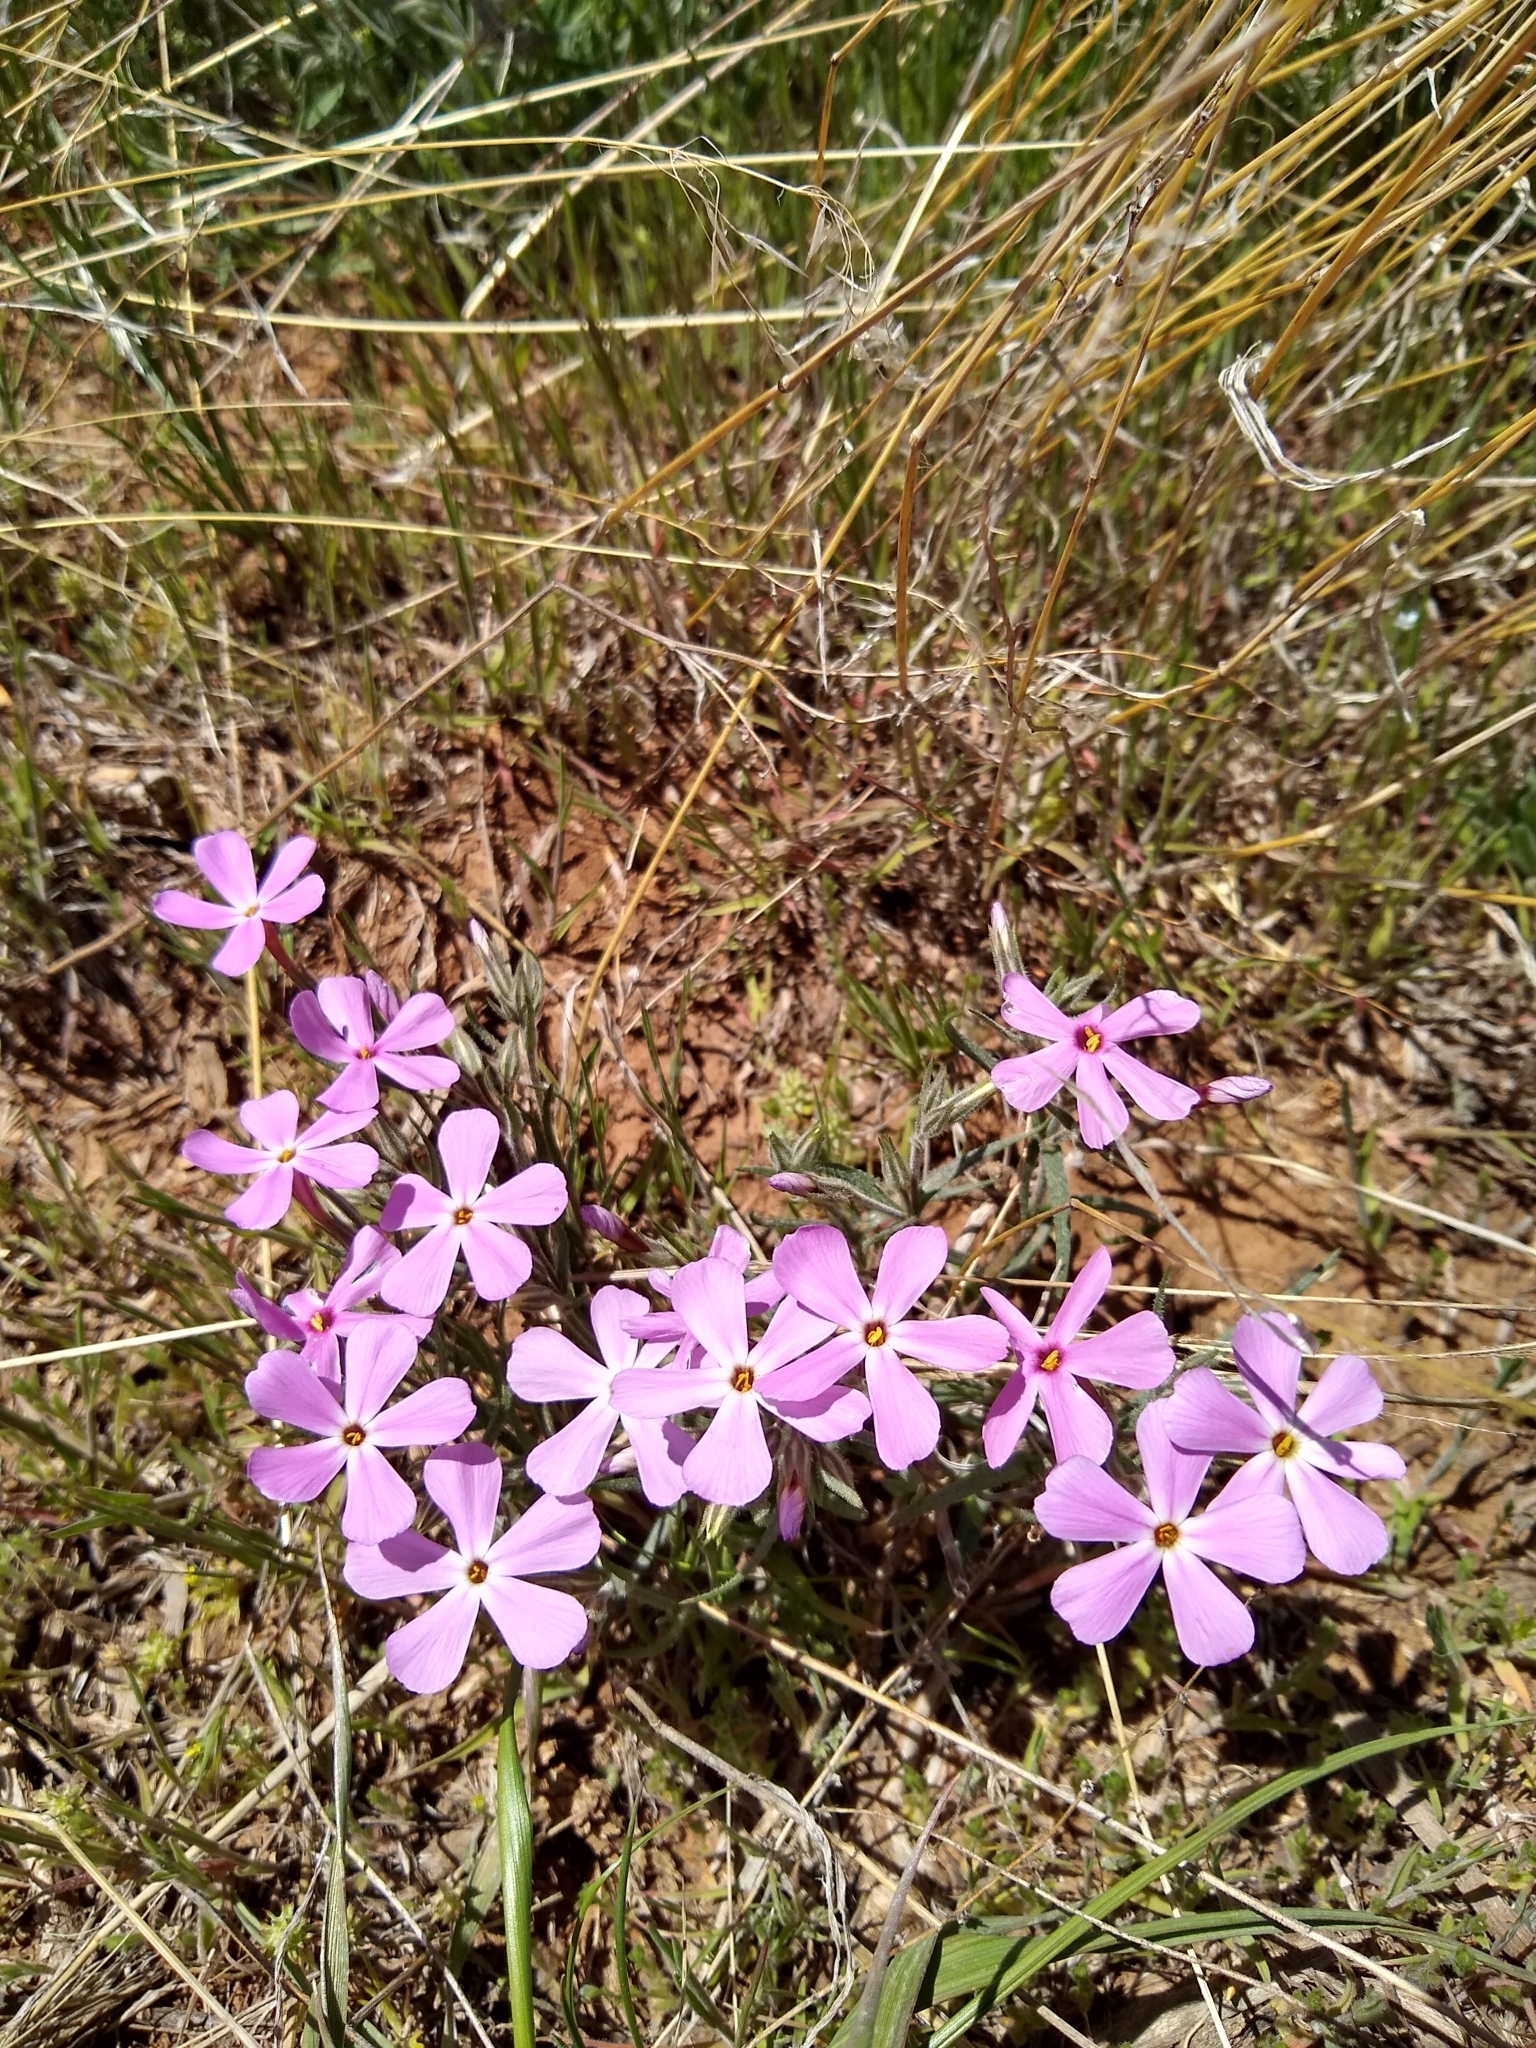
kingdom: Plantae
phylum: Tracheophyta
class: Magnoliopsida
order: Ericales
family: Polemoniaceae
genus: Phlox
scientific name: Phlox longifolia
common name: Longleaf phlox
